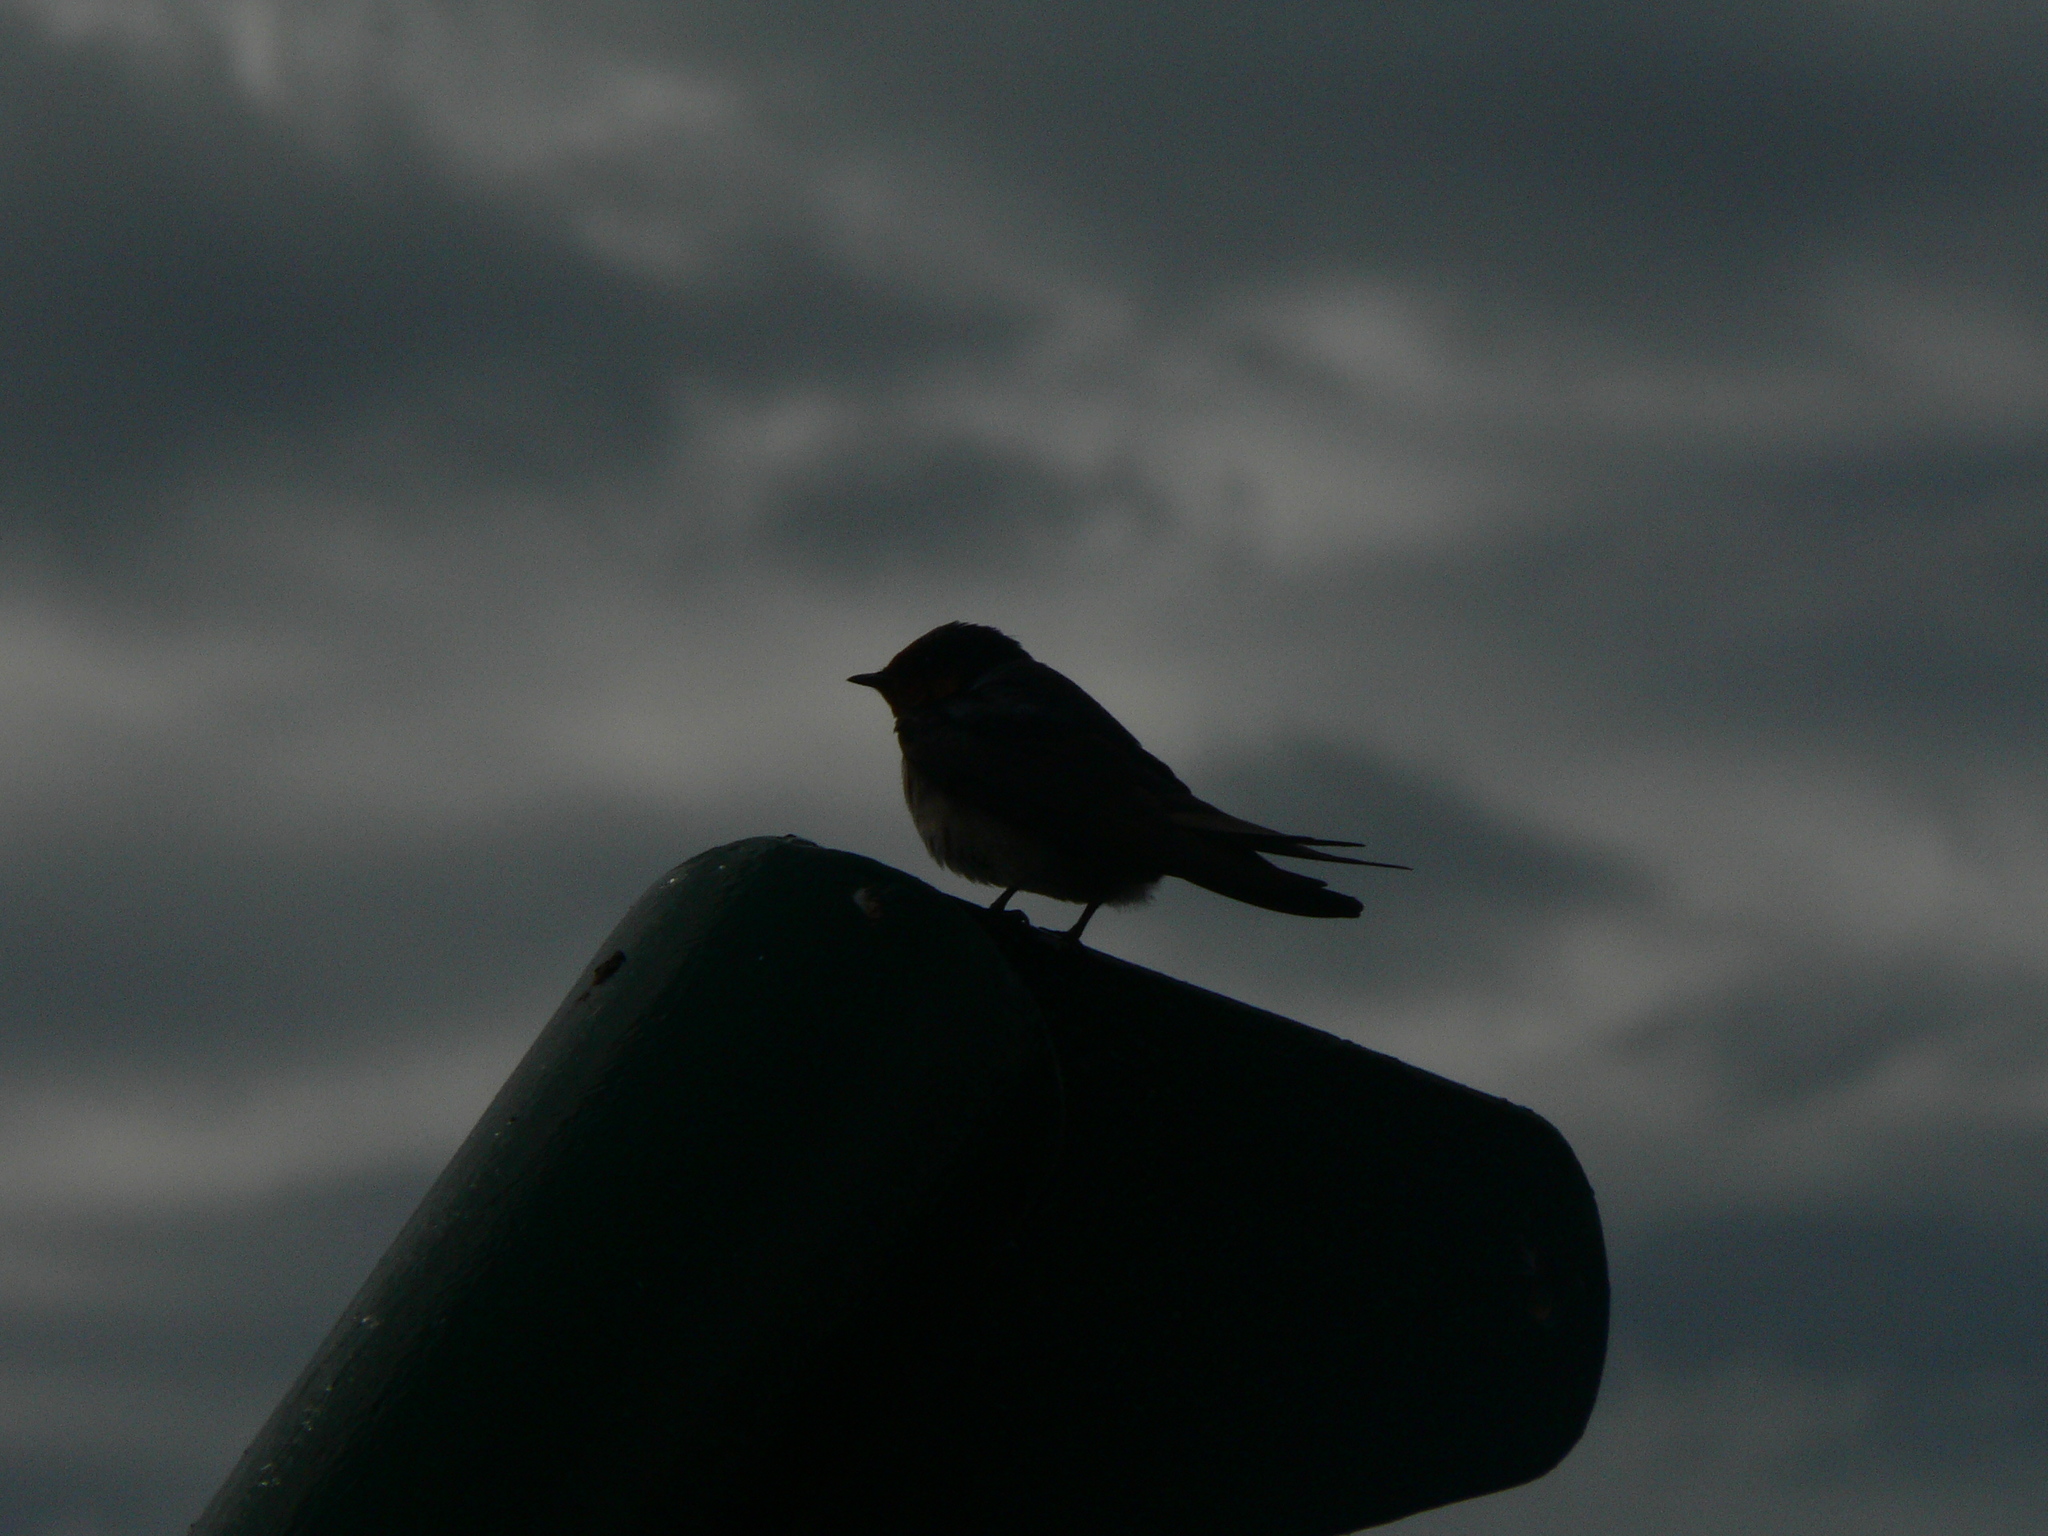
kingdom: Animalia
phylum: Chordata
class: Aves
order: Passeriformes
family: Hirundinidae
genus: Hirundo
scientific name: Hirundo neoxena
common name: Welcome swallow
